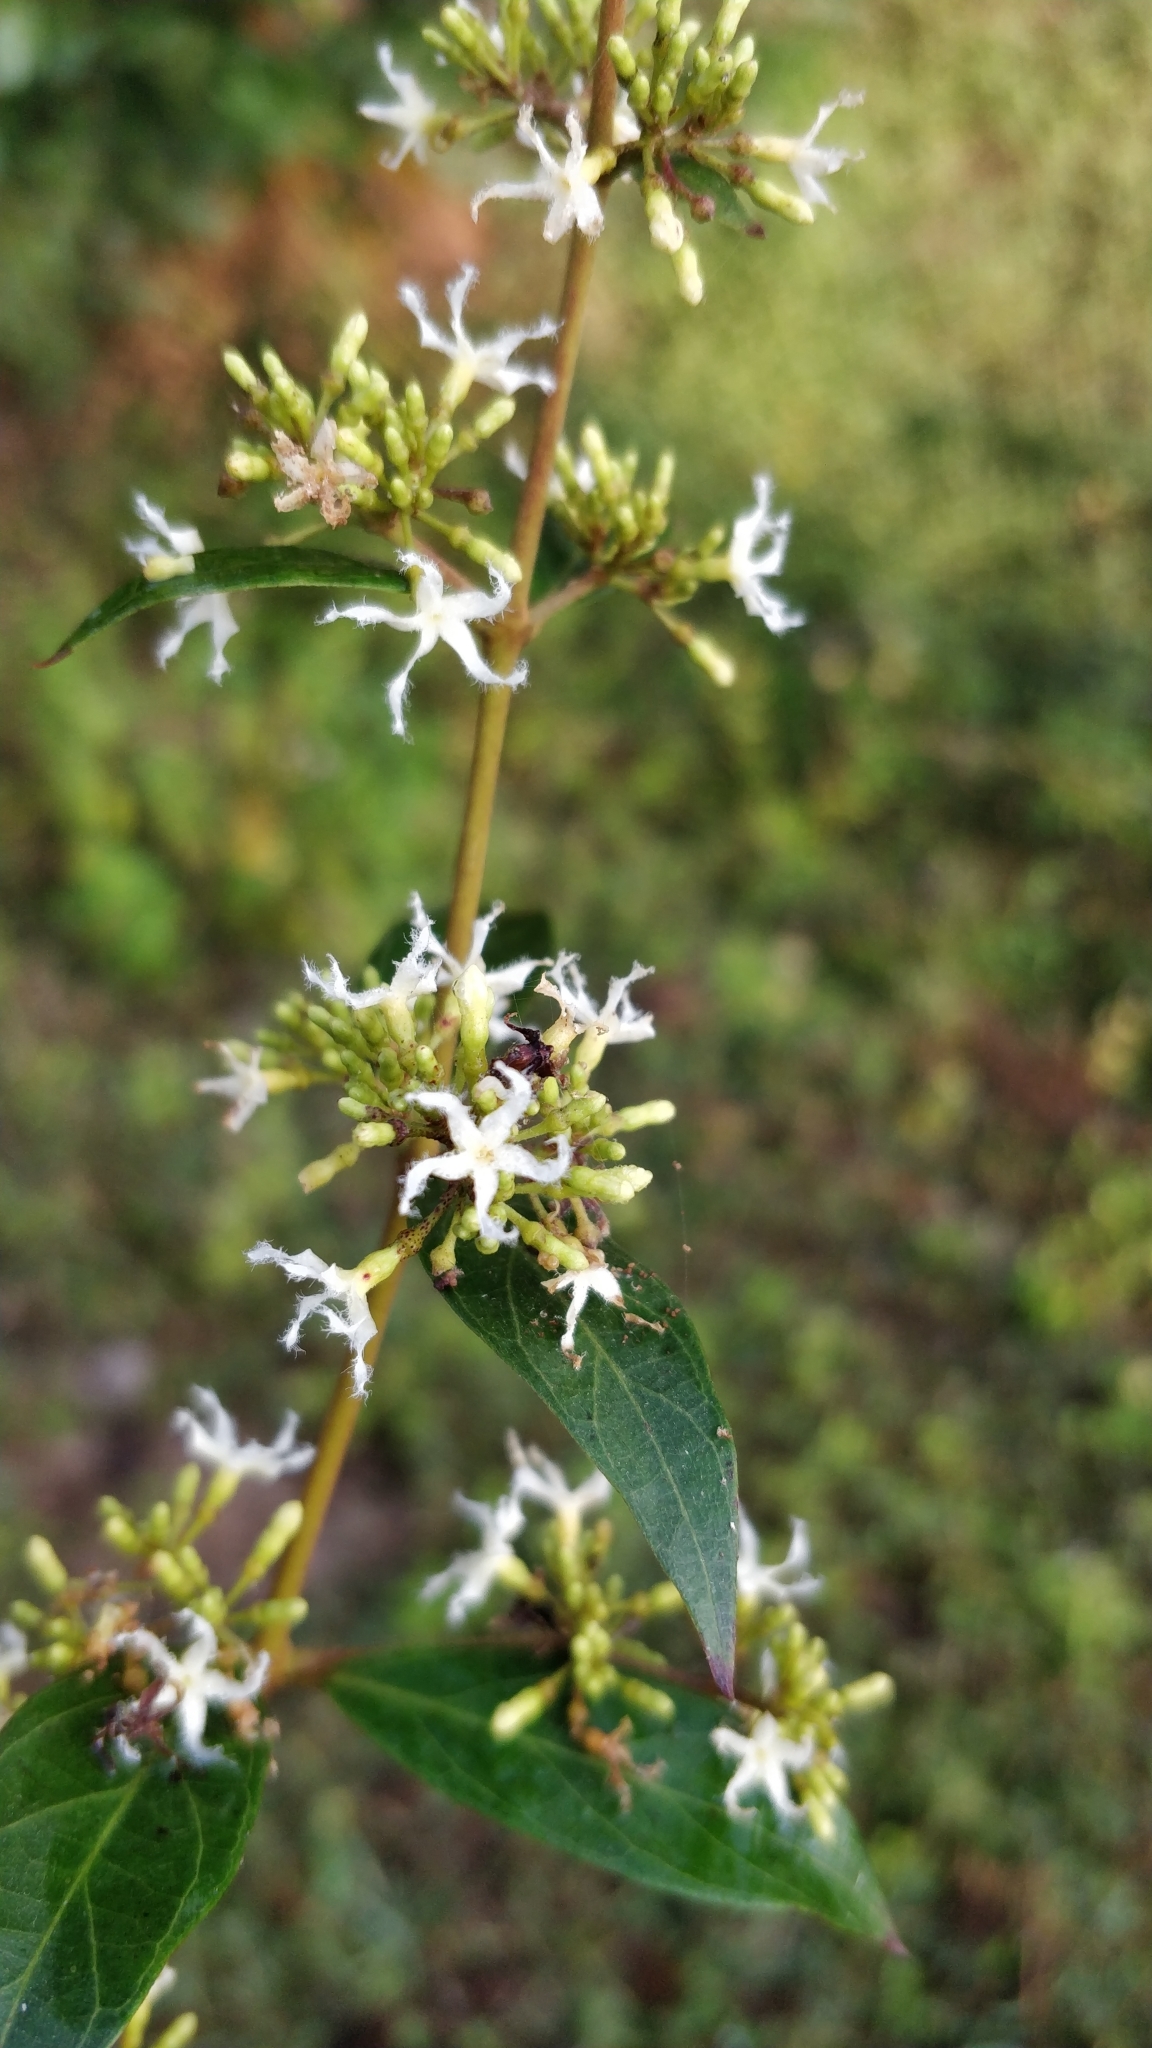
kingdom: Plantae
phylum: Tracheophyta
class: Magnoliopsida
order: Gentianales
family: Apocynaceae
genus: Ichnocarpus
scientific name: Ichnocarpus frutescens
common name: Ichnocarpus
